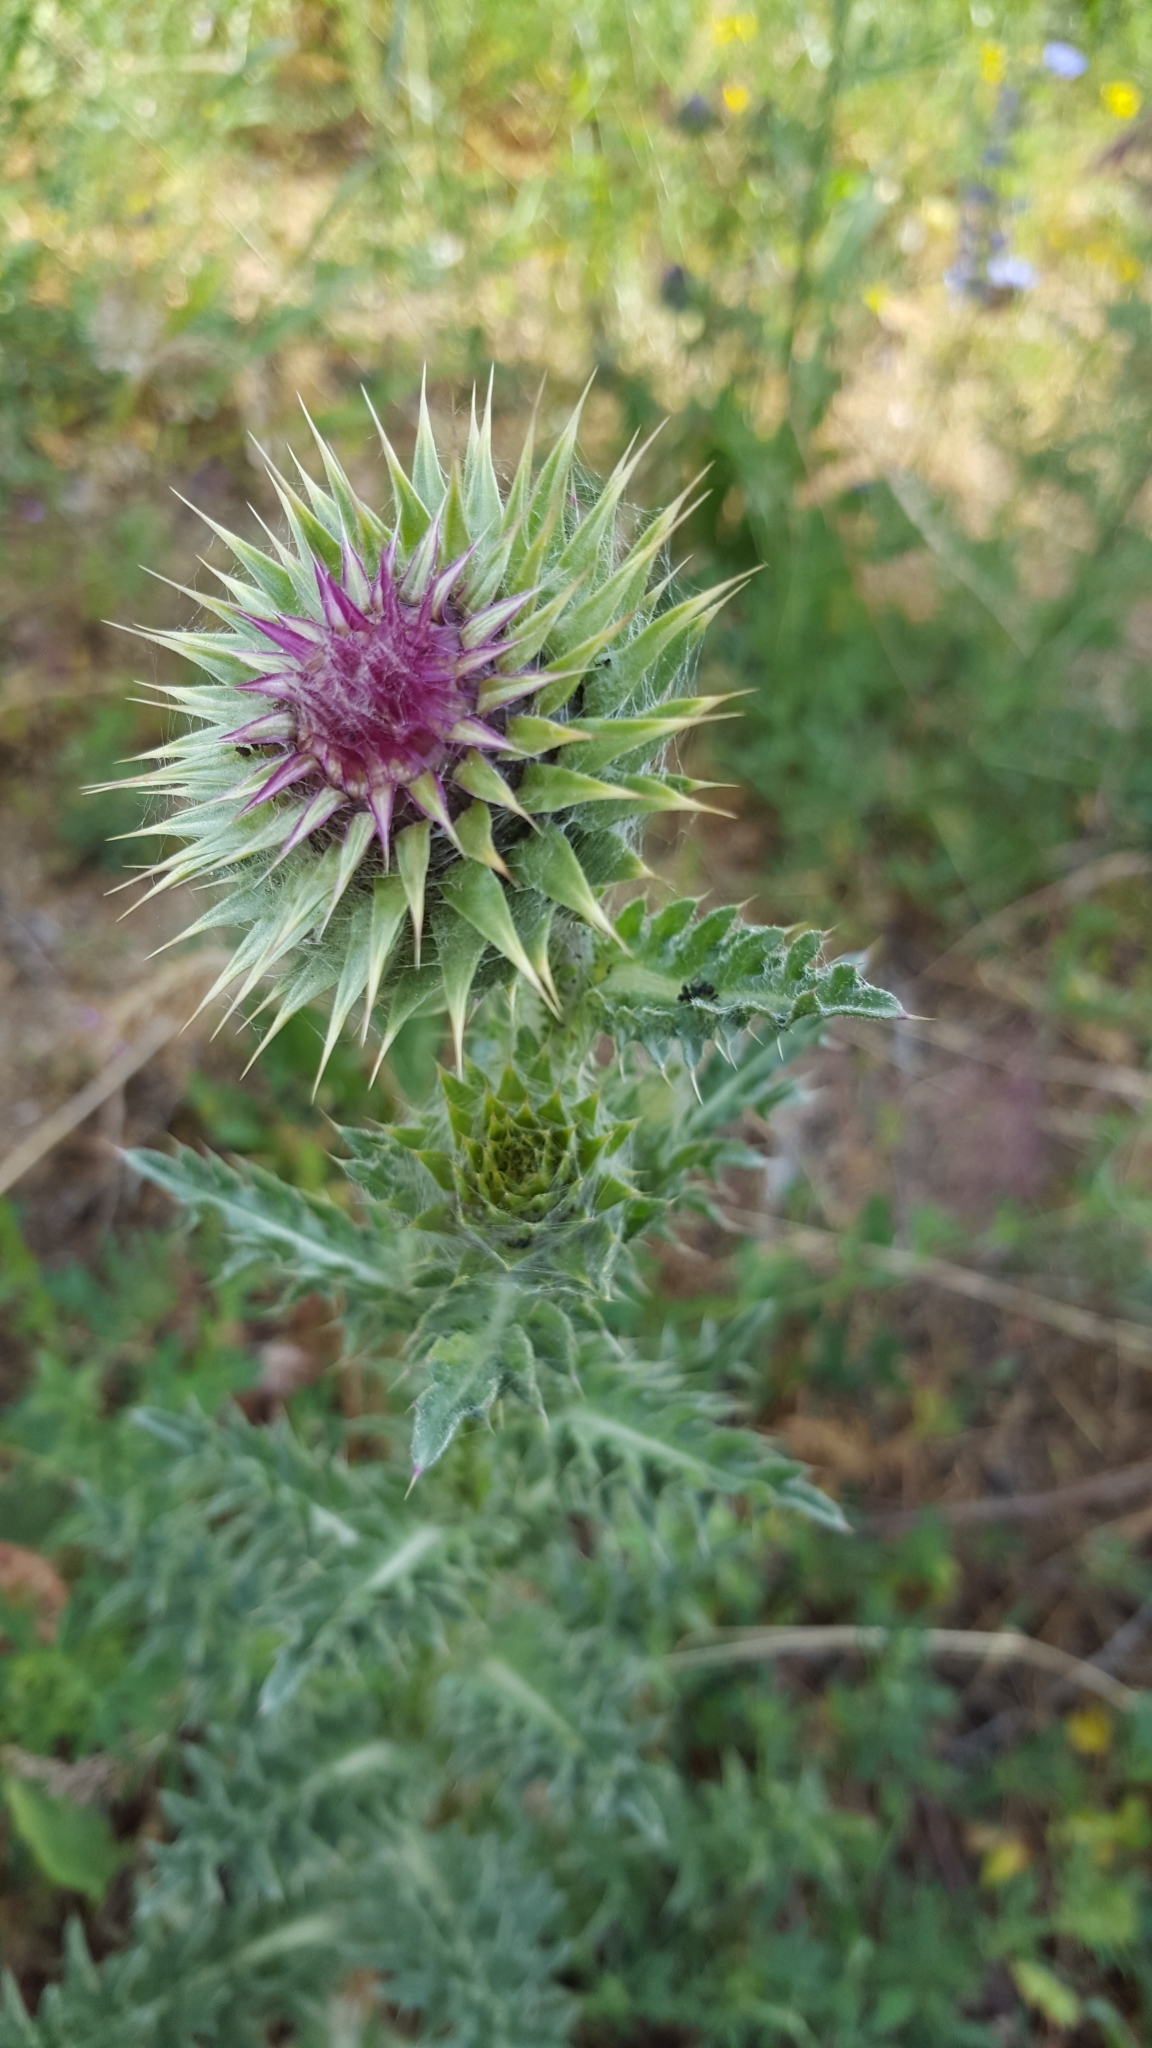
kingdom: Plantae
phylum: Tracheophyta
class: Magnoliopsida
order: Asterales
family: Asteraceae
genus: Carduus
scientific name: Carduus nutans
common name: Musk thistle
